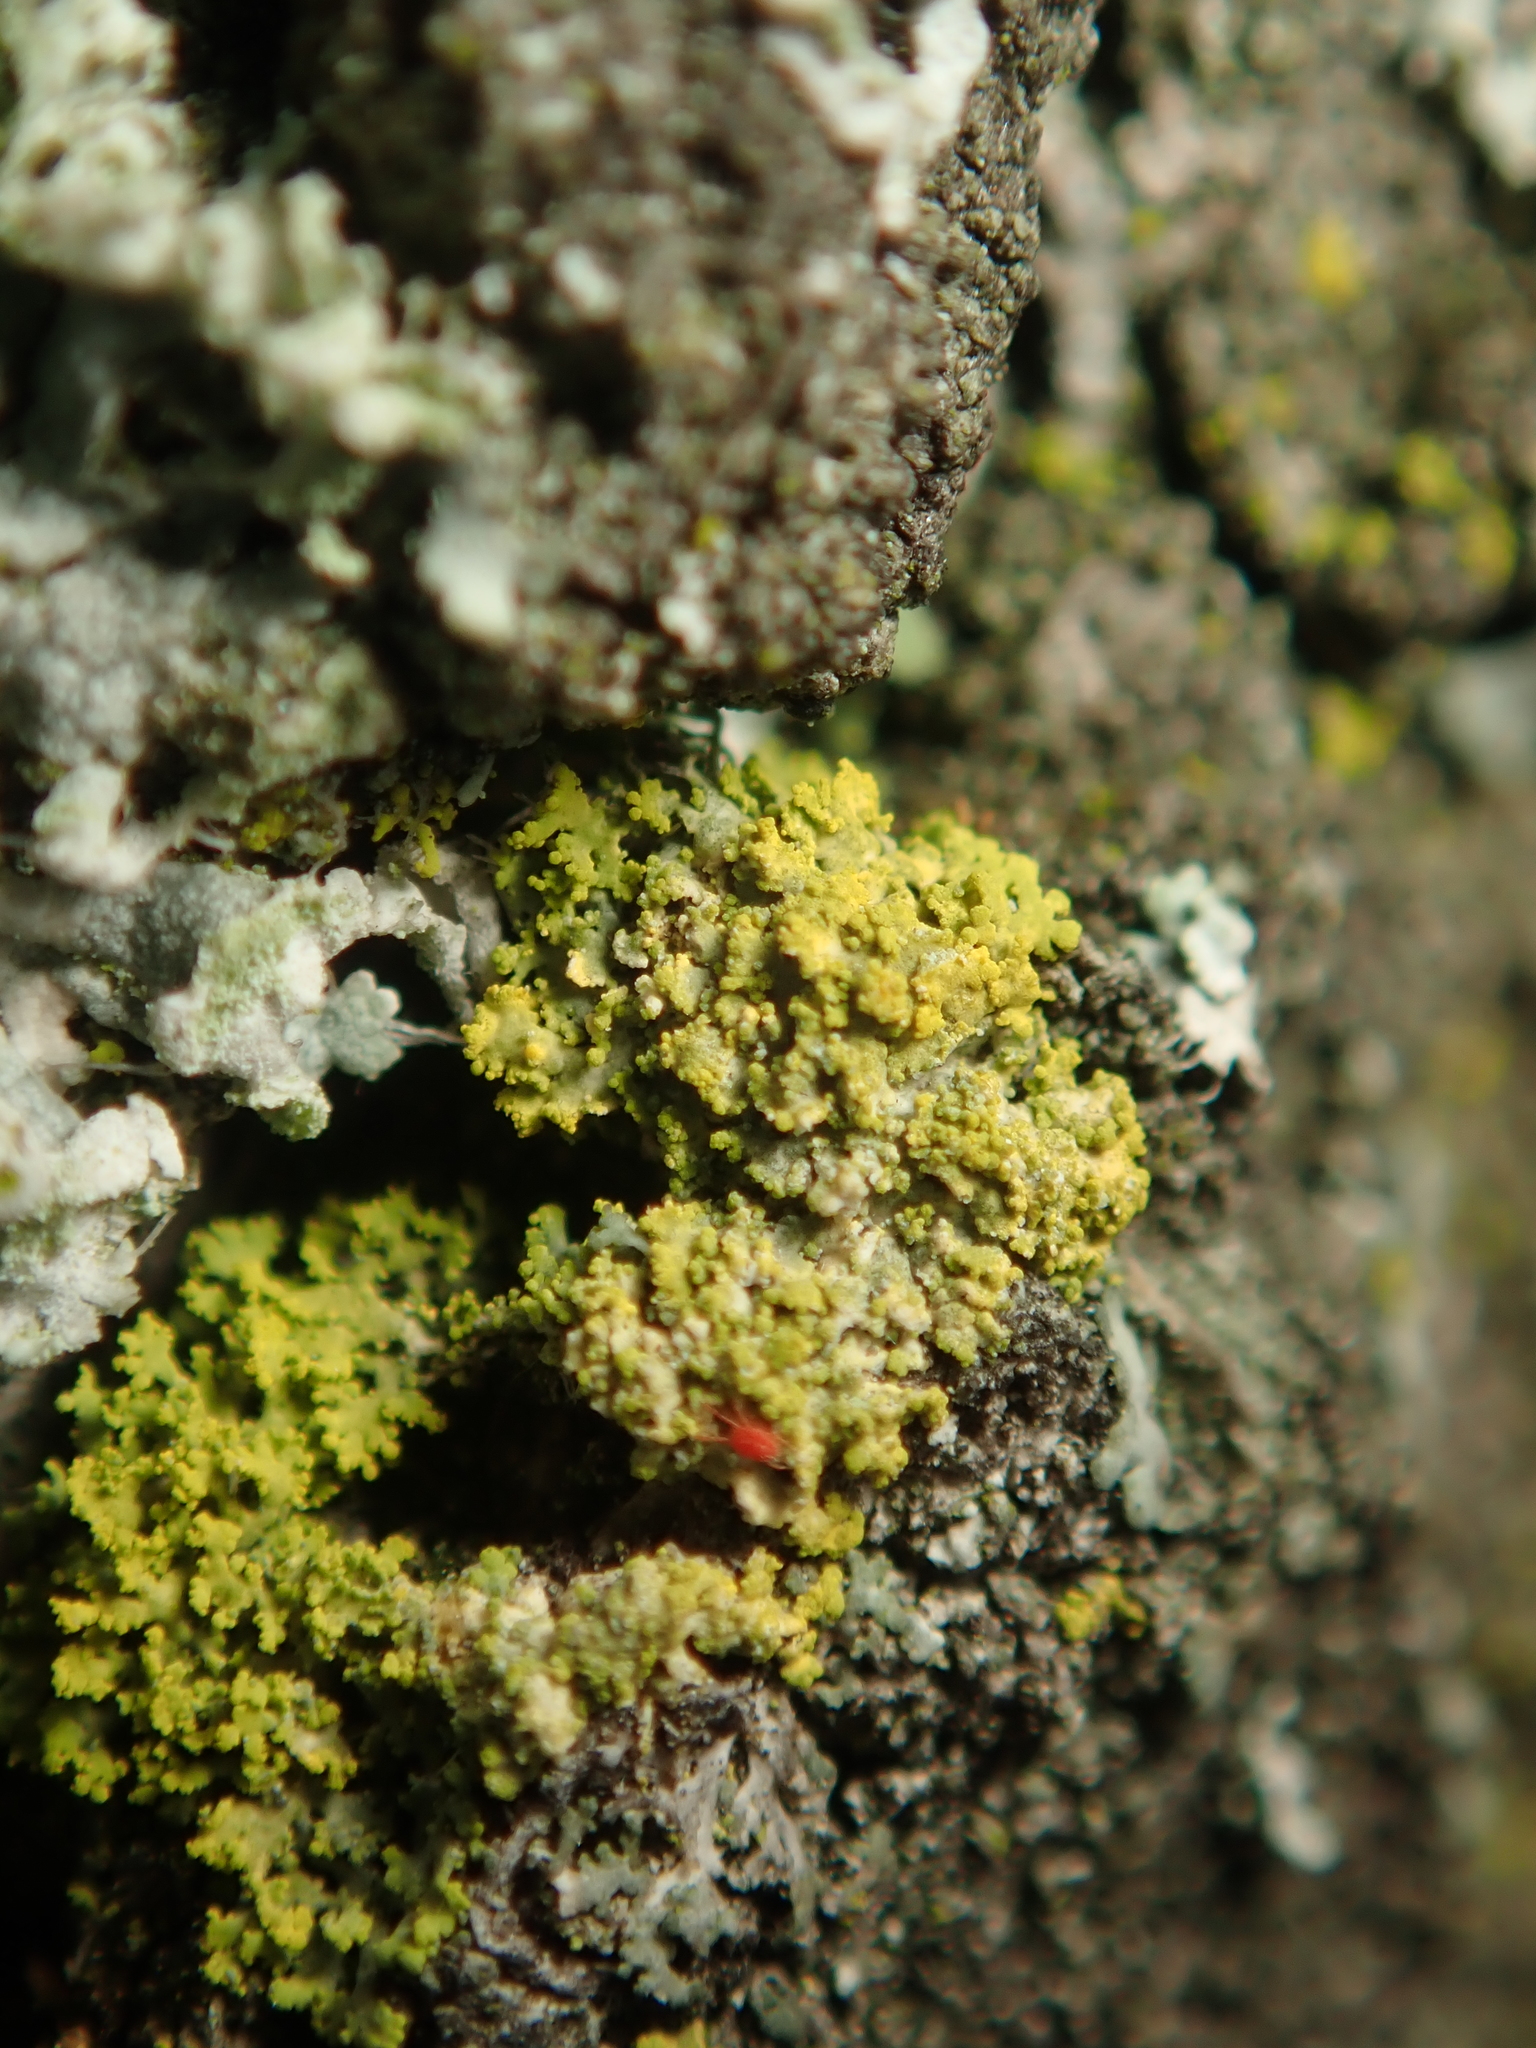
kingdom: Fungi
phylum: Ascomycota
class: Candelariomycetes
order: Candelariales
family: Candelariaceae
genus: Candelaria
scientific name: Candelaria pacifica
